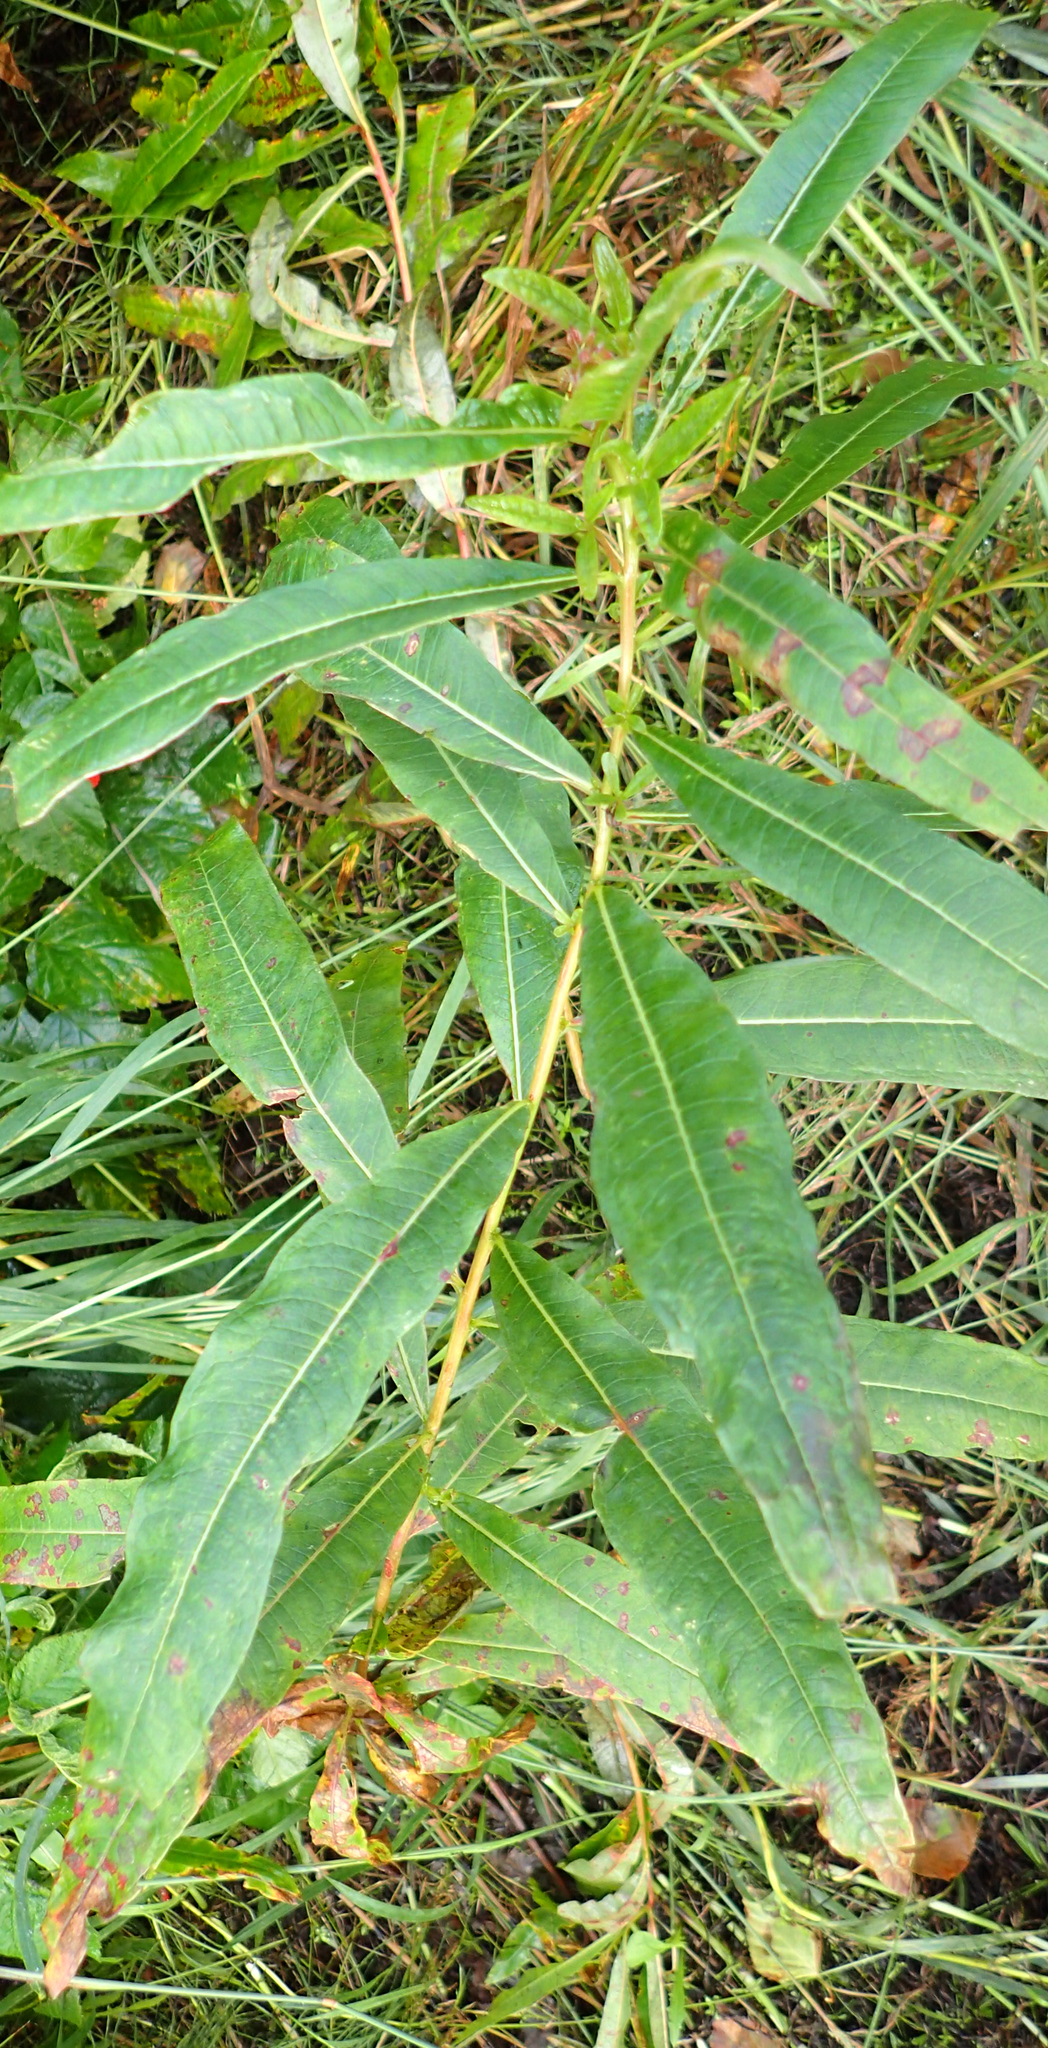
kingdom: Plantae
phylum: Tracheophyta
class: Magnoliopsida
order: Myrtales
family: Onagraceae
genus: Chamaenerion
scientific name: Chamaenerion angustifolium
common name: Fireweed
